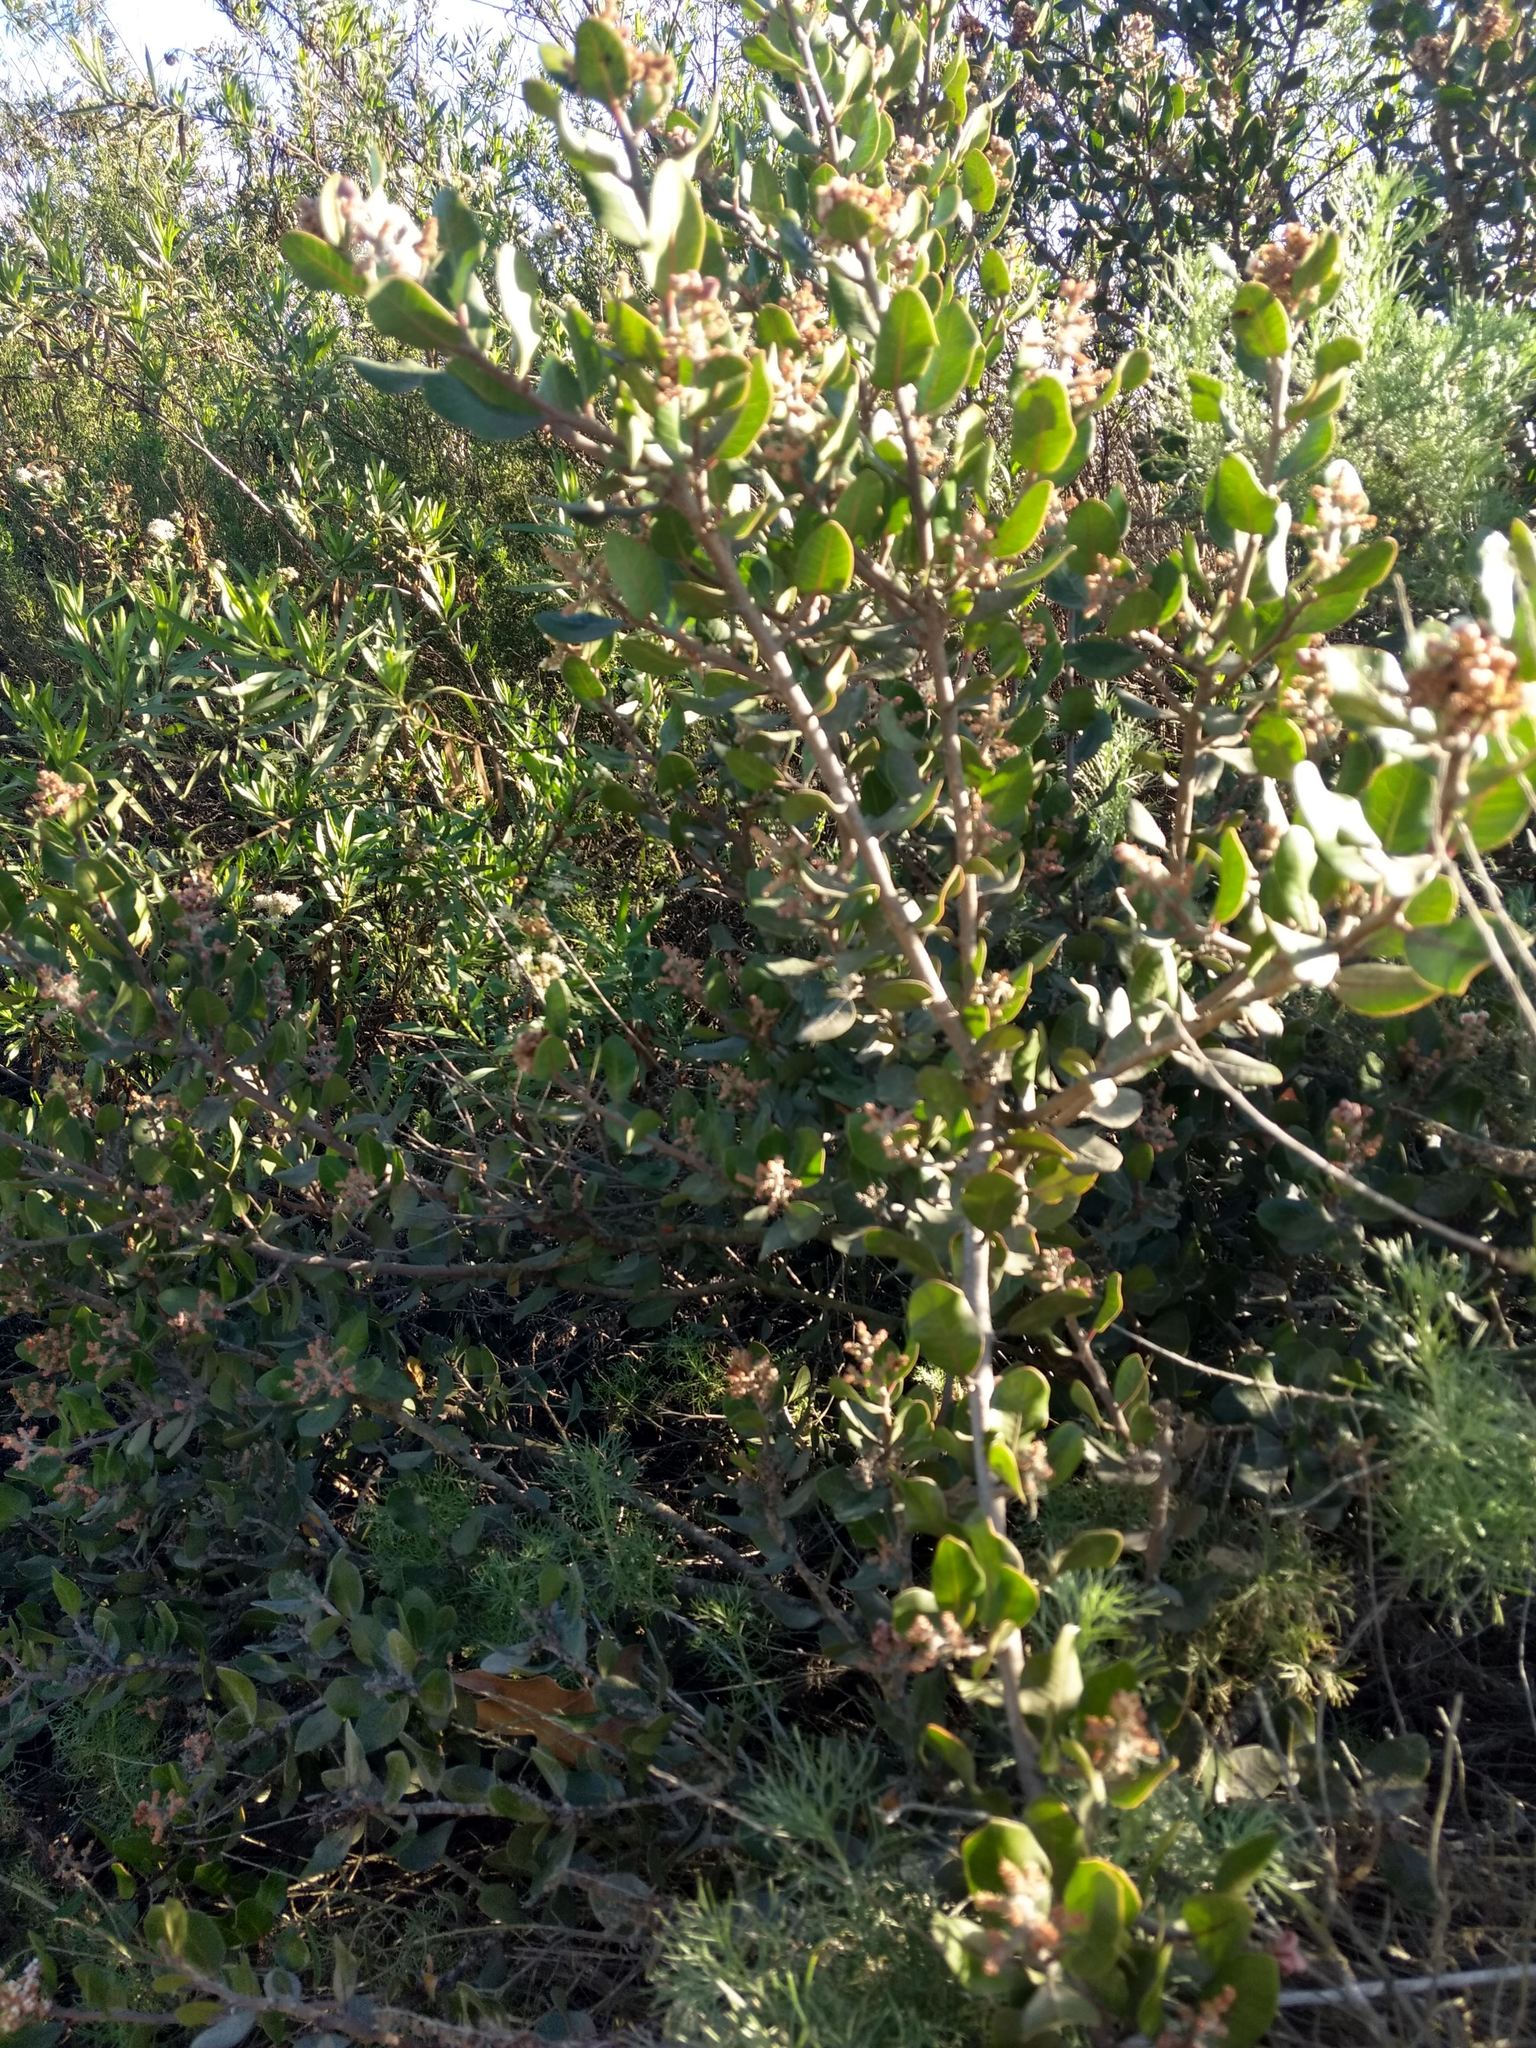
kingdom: Plantae
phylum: Tracheophyta
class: Magnoliopsida
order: Sapindales
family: Anacardiaceae
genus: Rhus
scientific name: Rhus integrifolia
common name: Lemonade sumac
